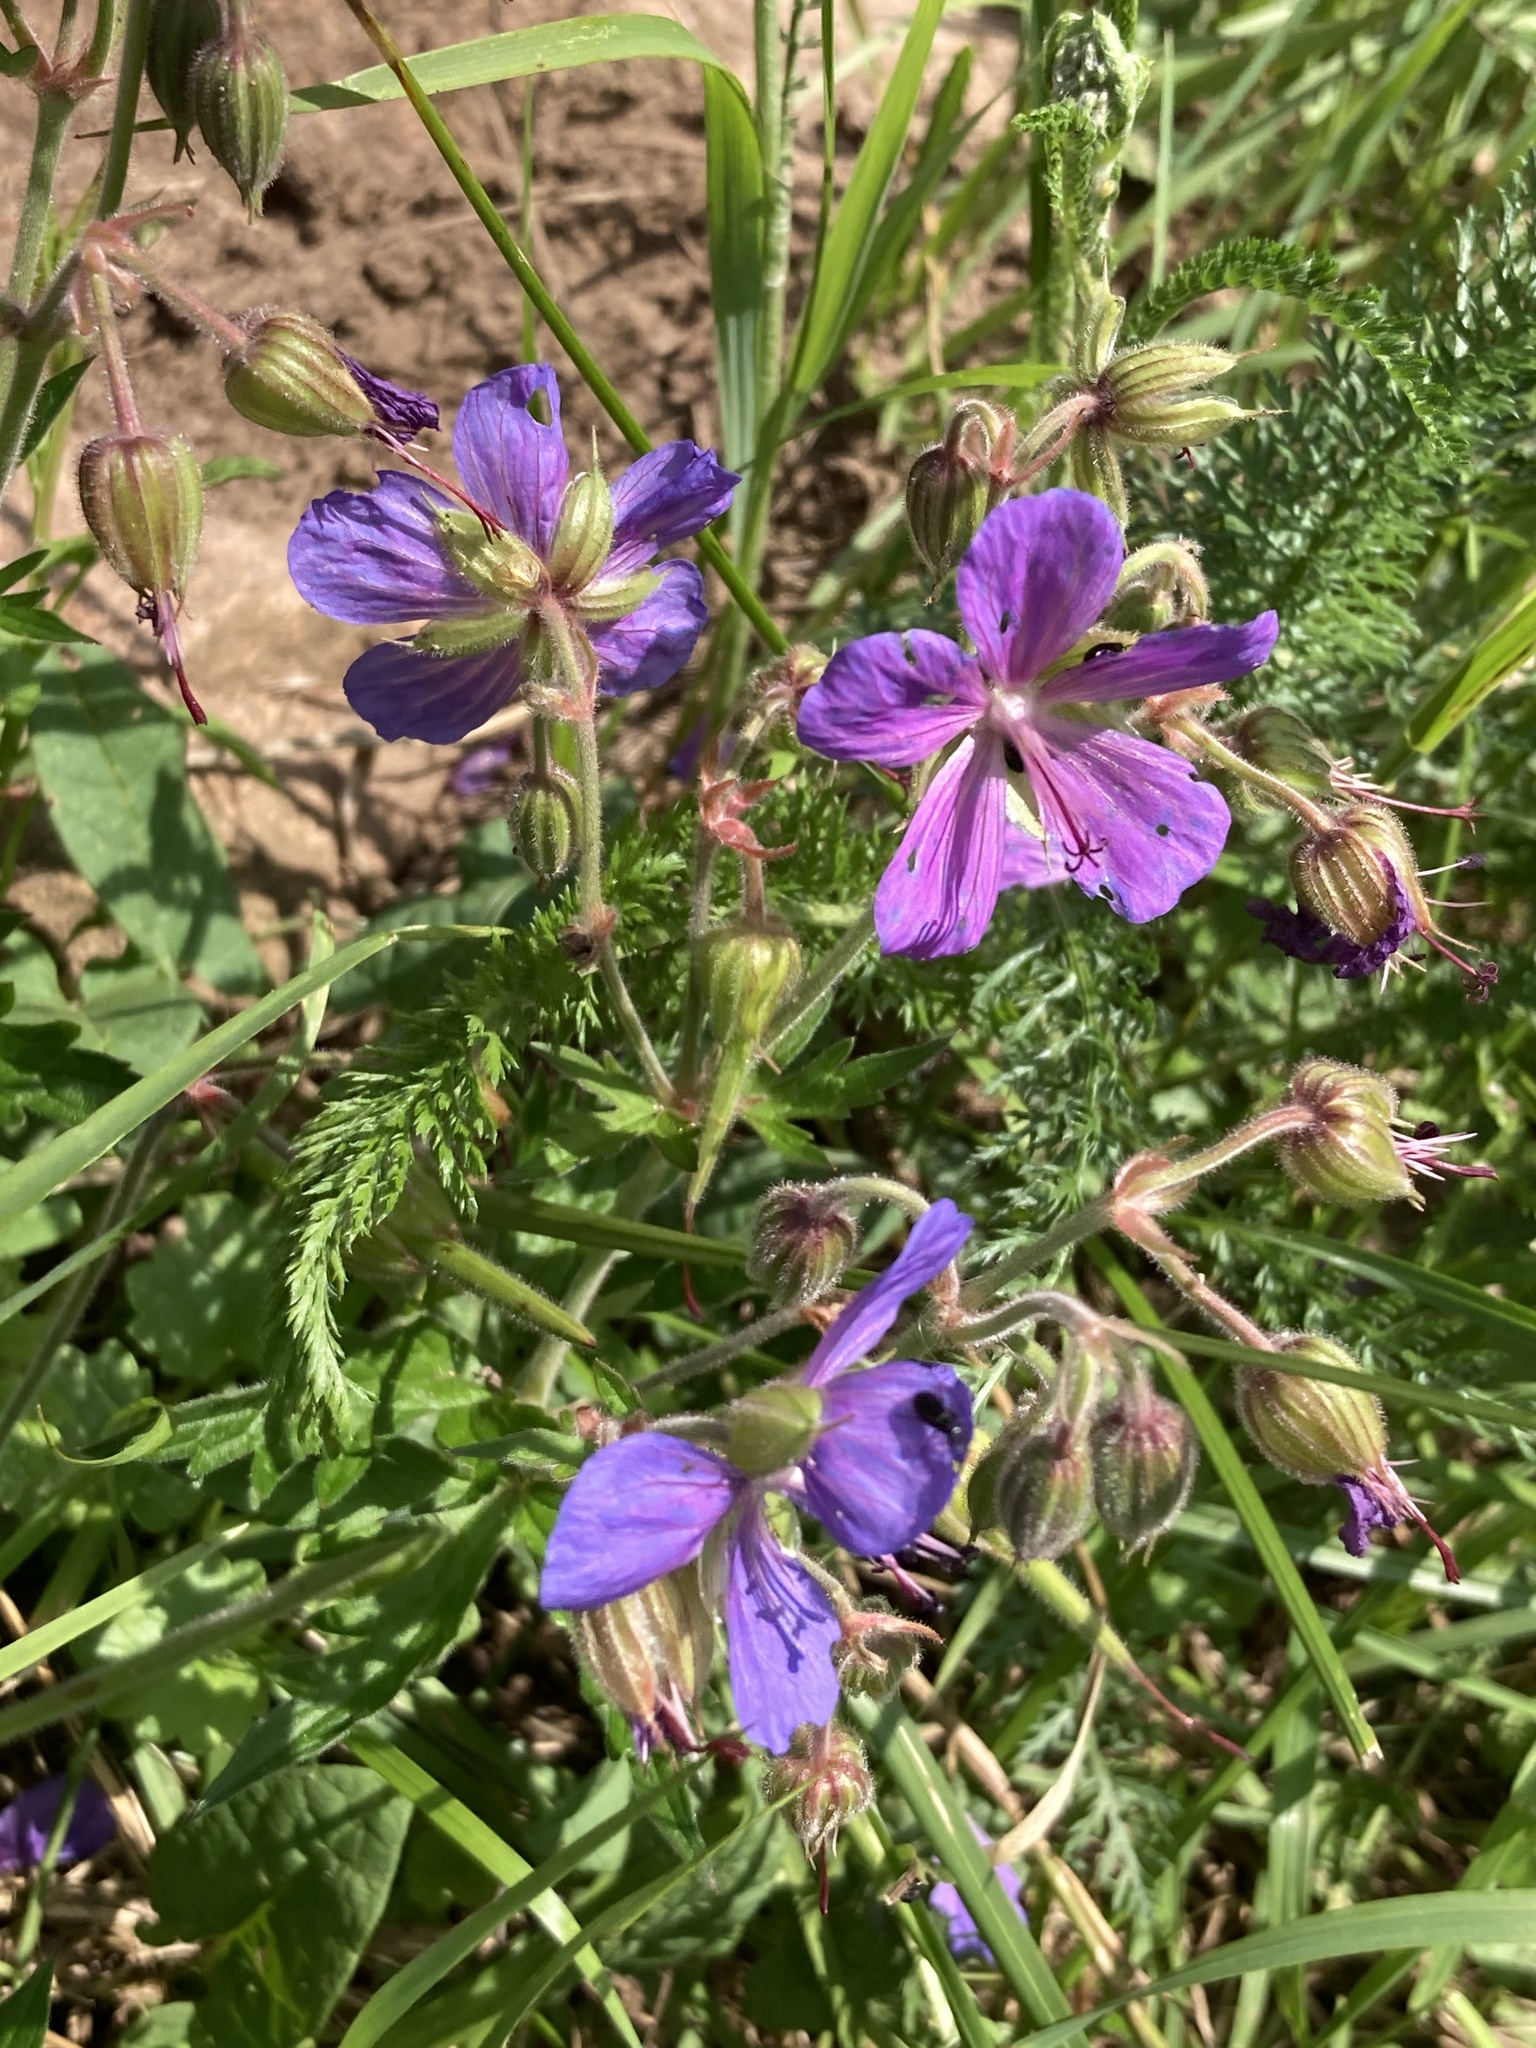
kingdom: Plantae
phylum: Tracheophyta
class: Magnoliopsida
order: Geraniales
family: Geraniaceae
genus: Geranium
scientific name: Geranium pratense
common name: Meadow crane's-bill
